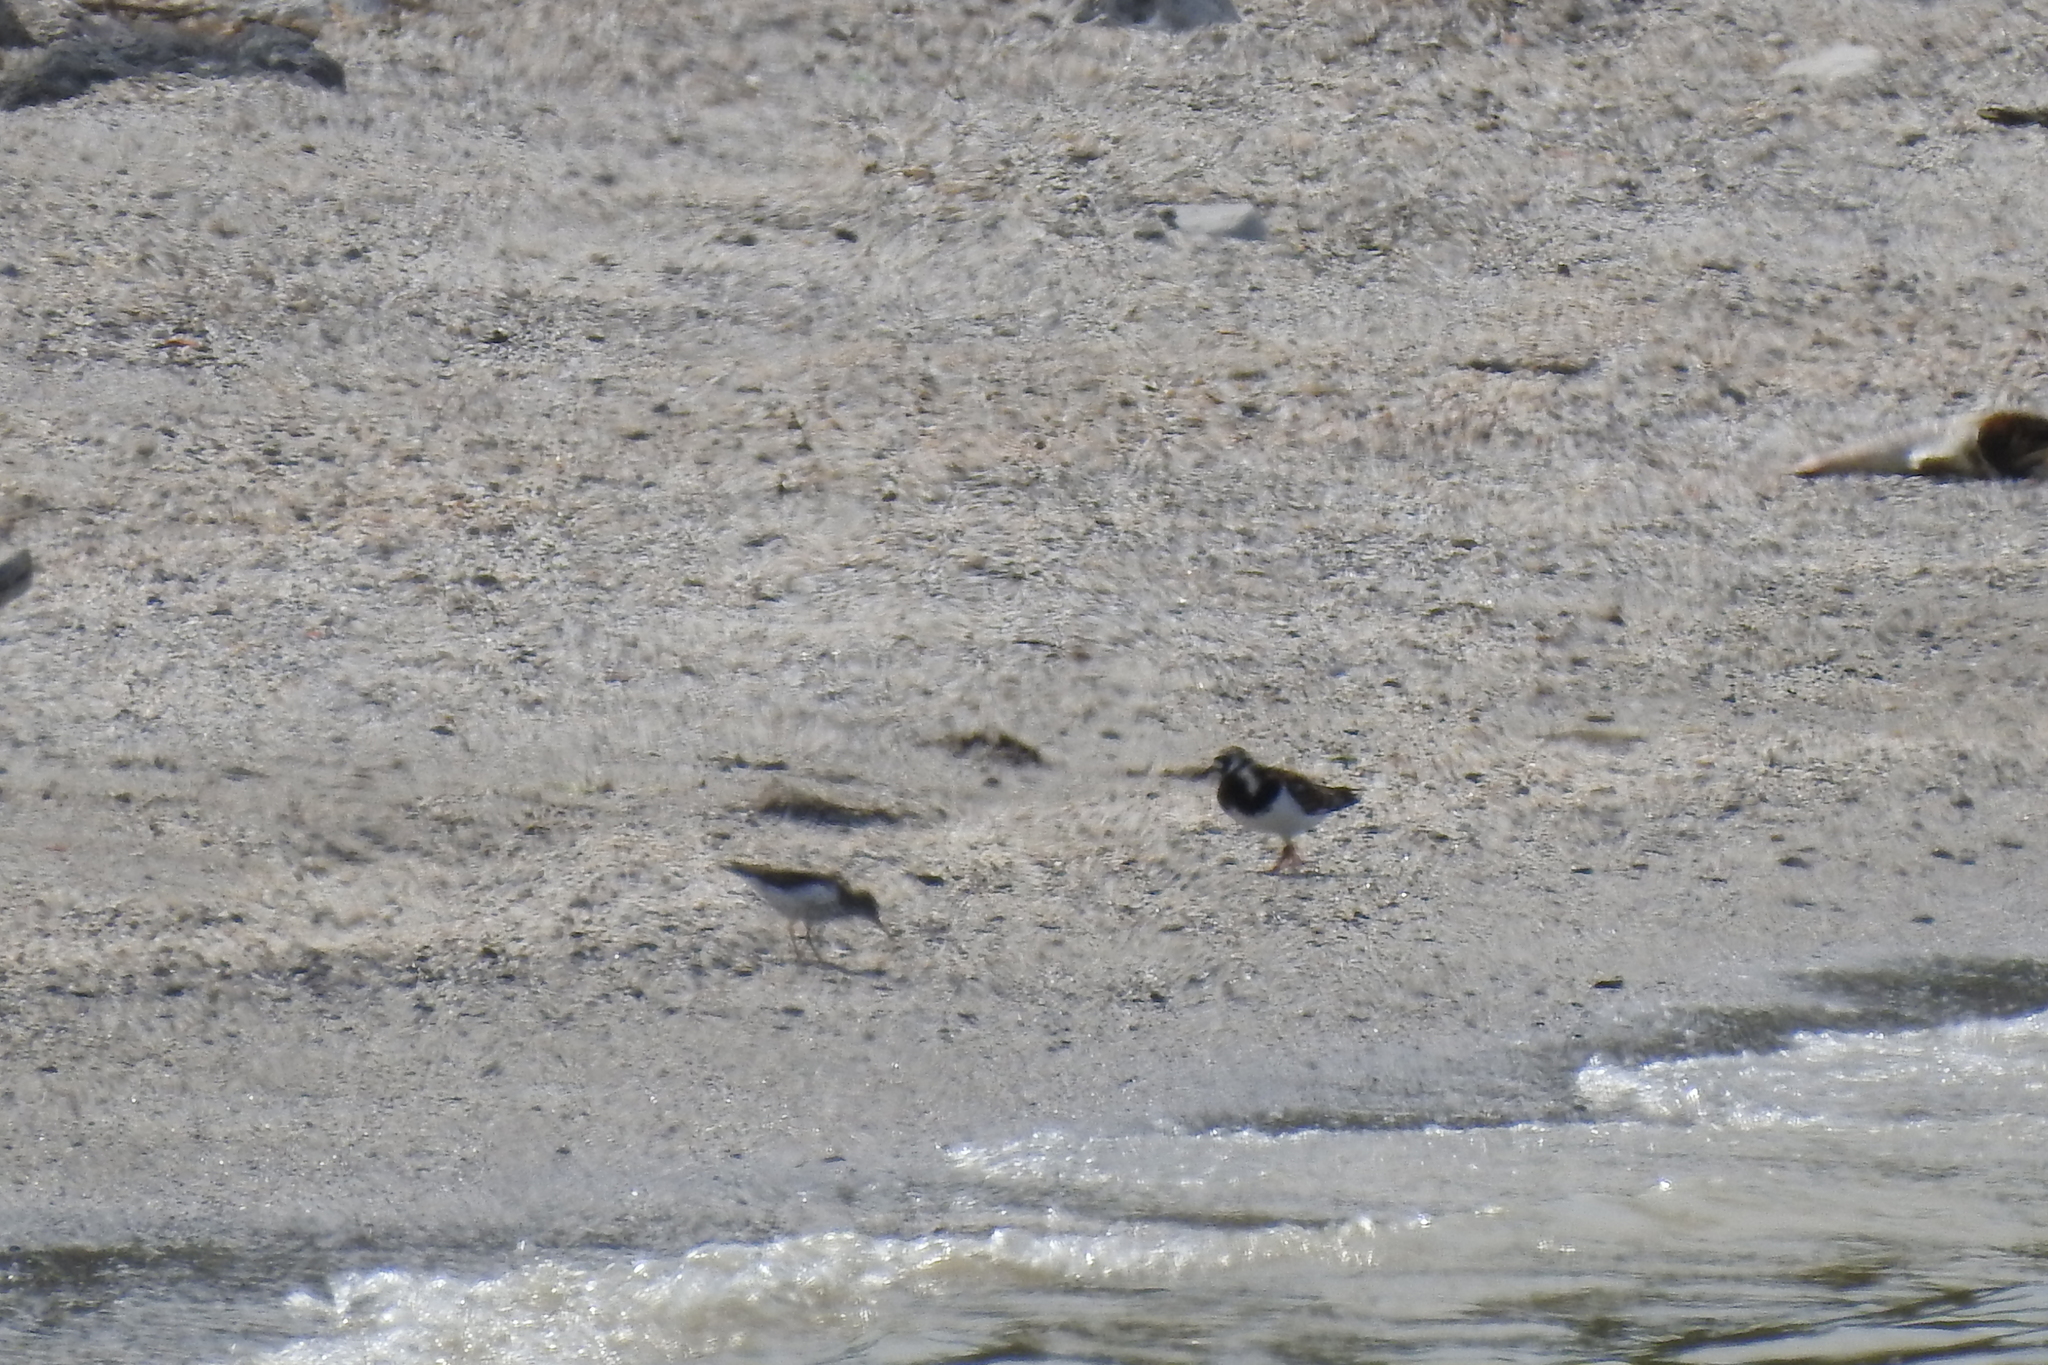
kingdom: Animalia
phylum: Chordata
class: Aves
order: Charadriiformes
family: Scolopacidae
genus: Arenaria
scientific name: Arenaria interpres
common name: Ruddy turnstone
